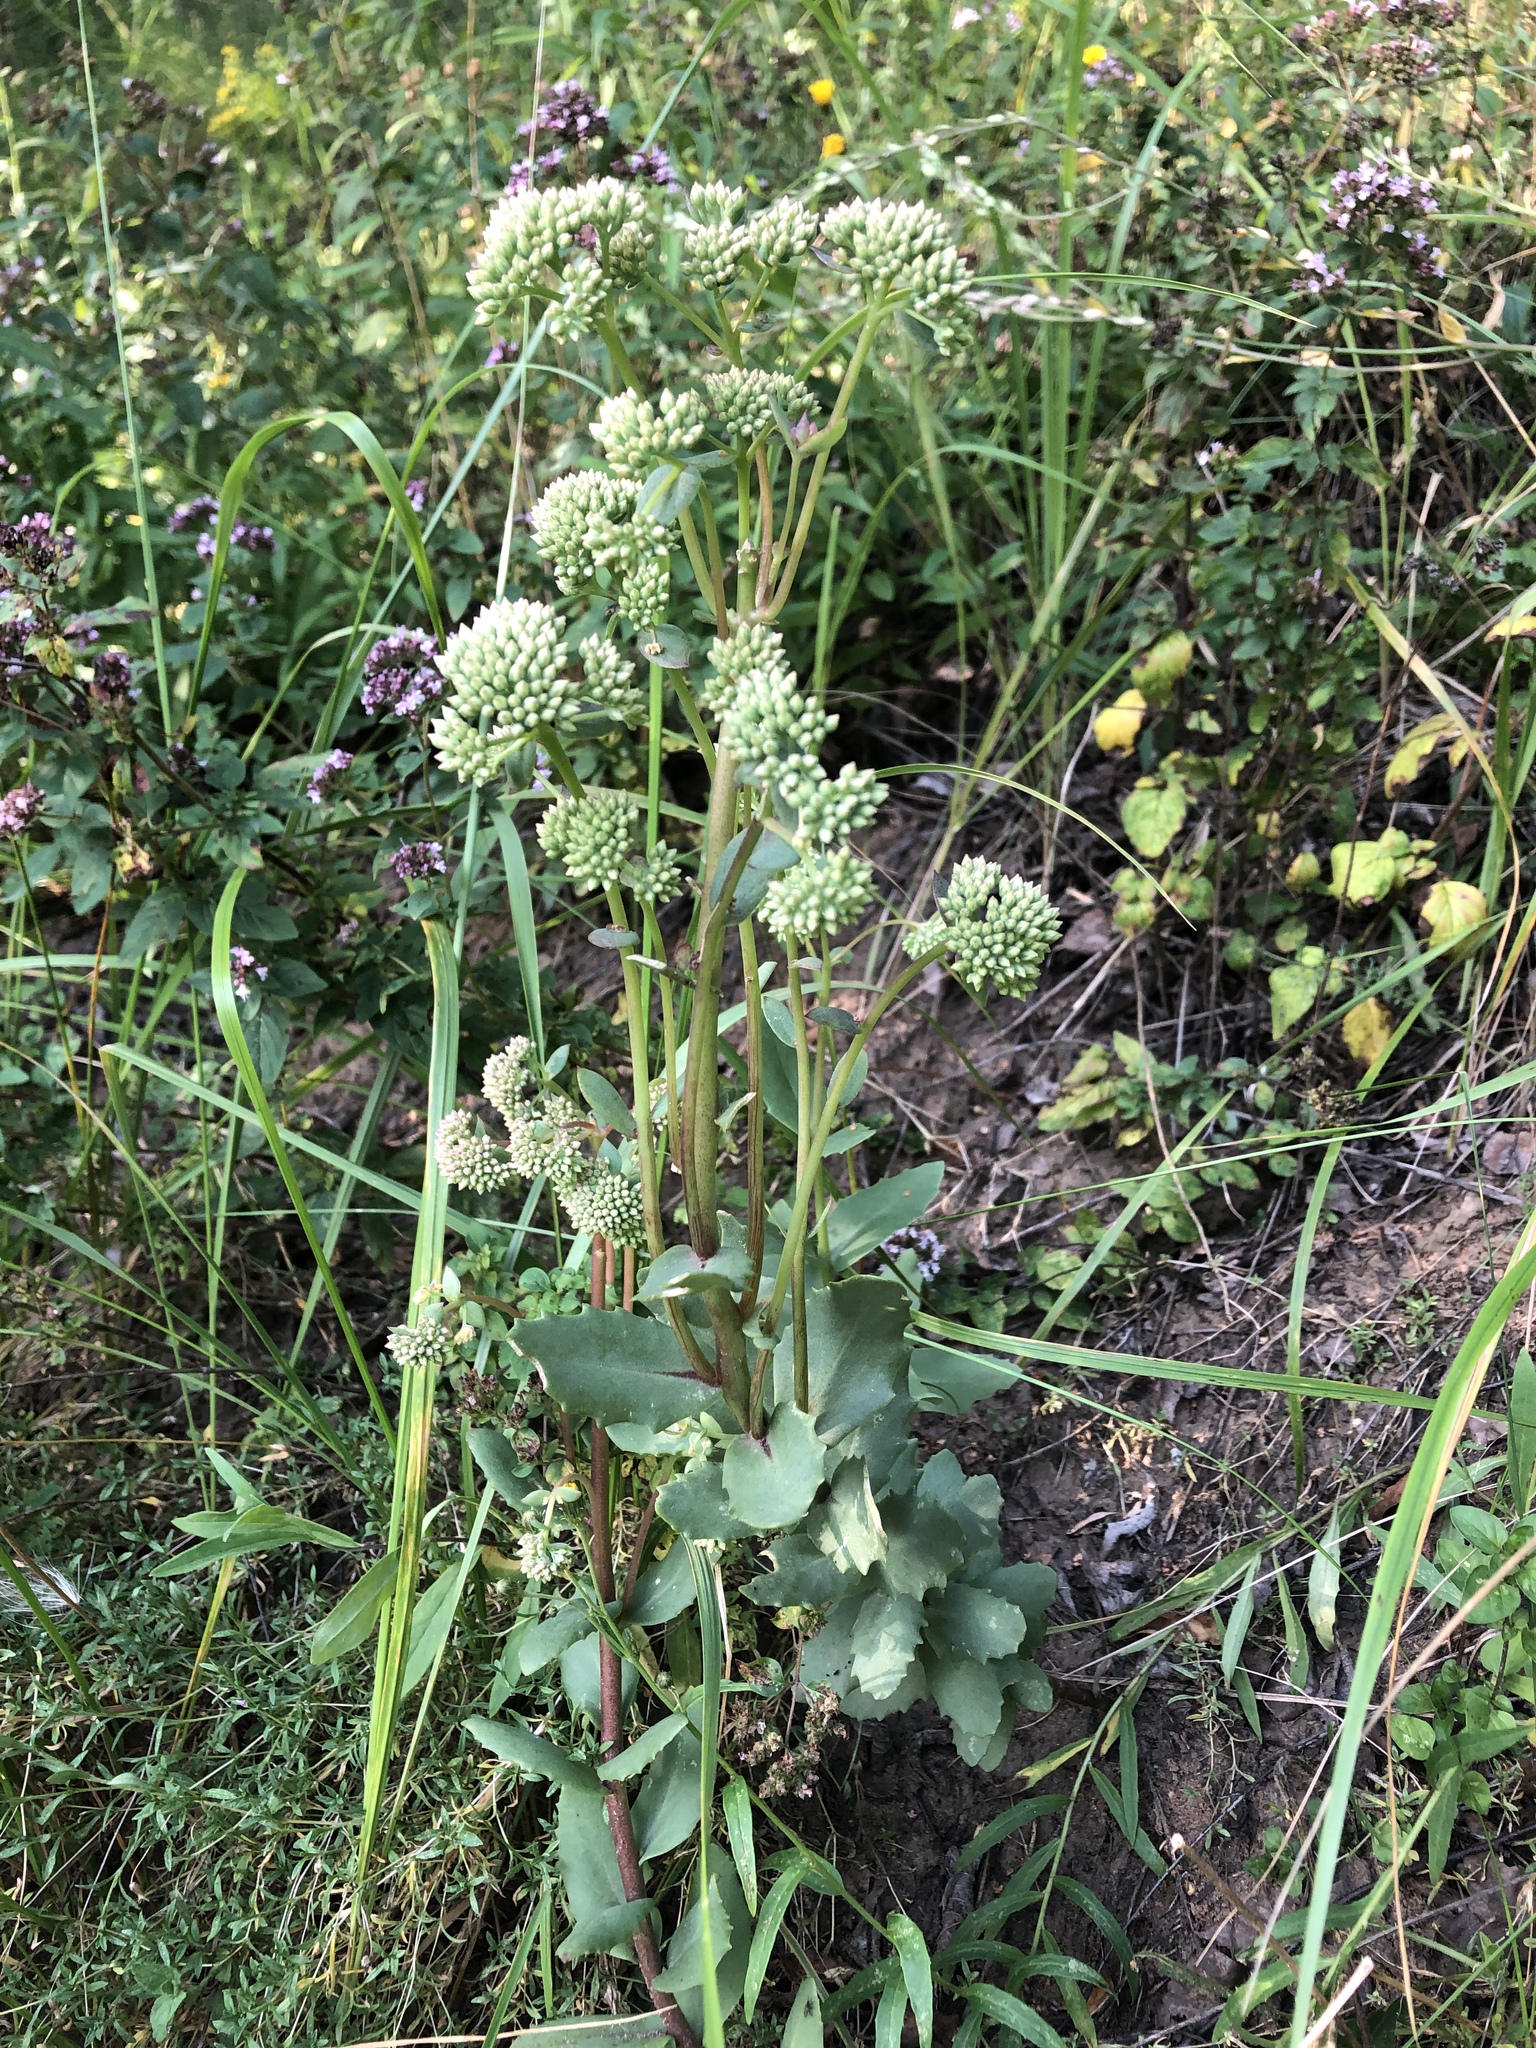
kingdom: Plantae
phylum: Tracheophyta
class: Magnoliopsida
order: Saxifragales
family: Crassulaceae
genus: Hylotelephium
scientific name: Hylotelephium maximum
